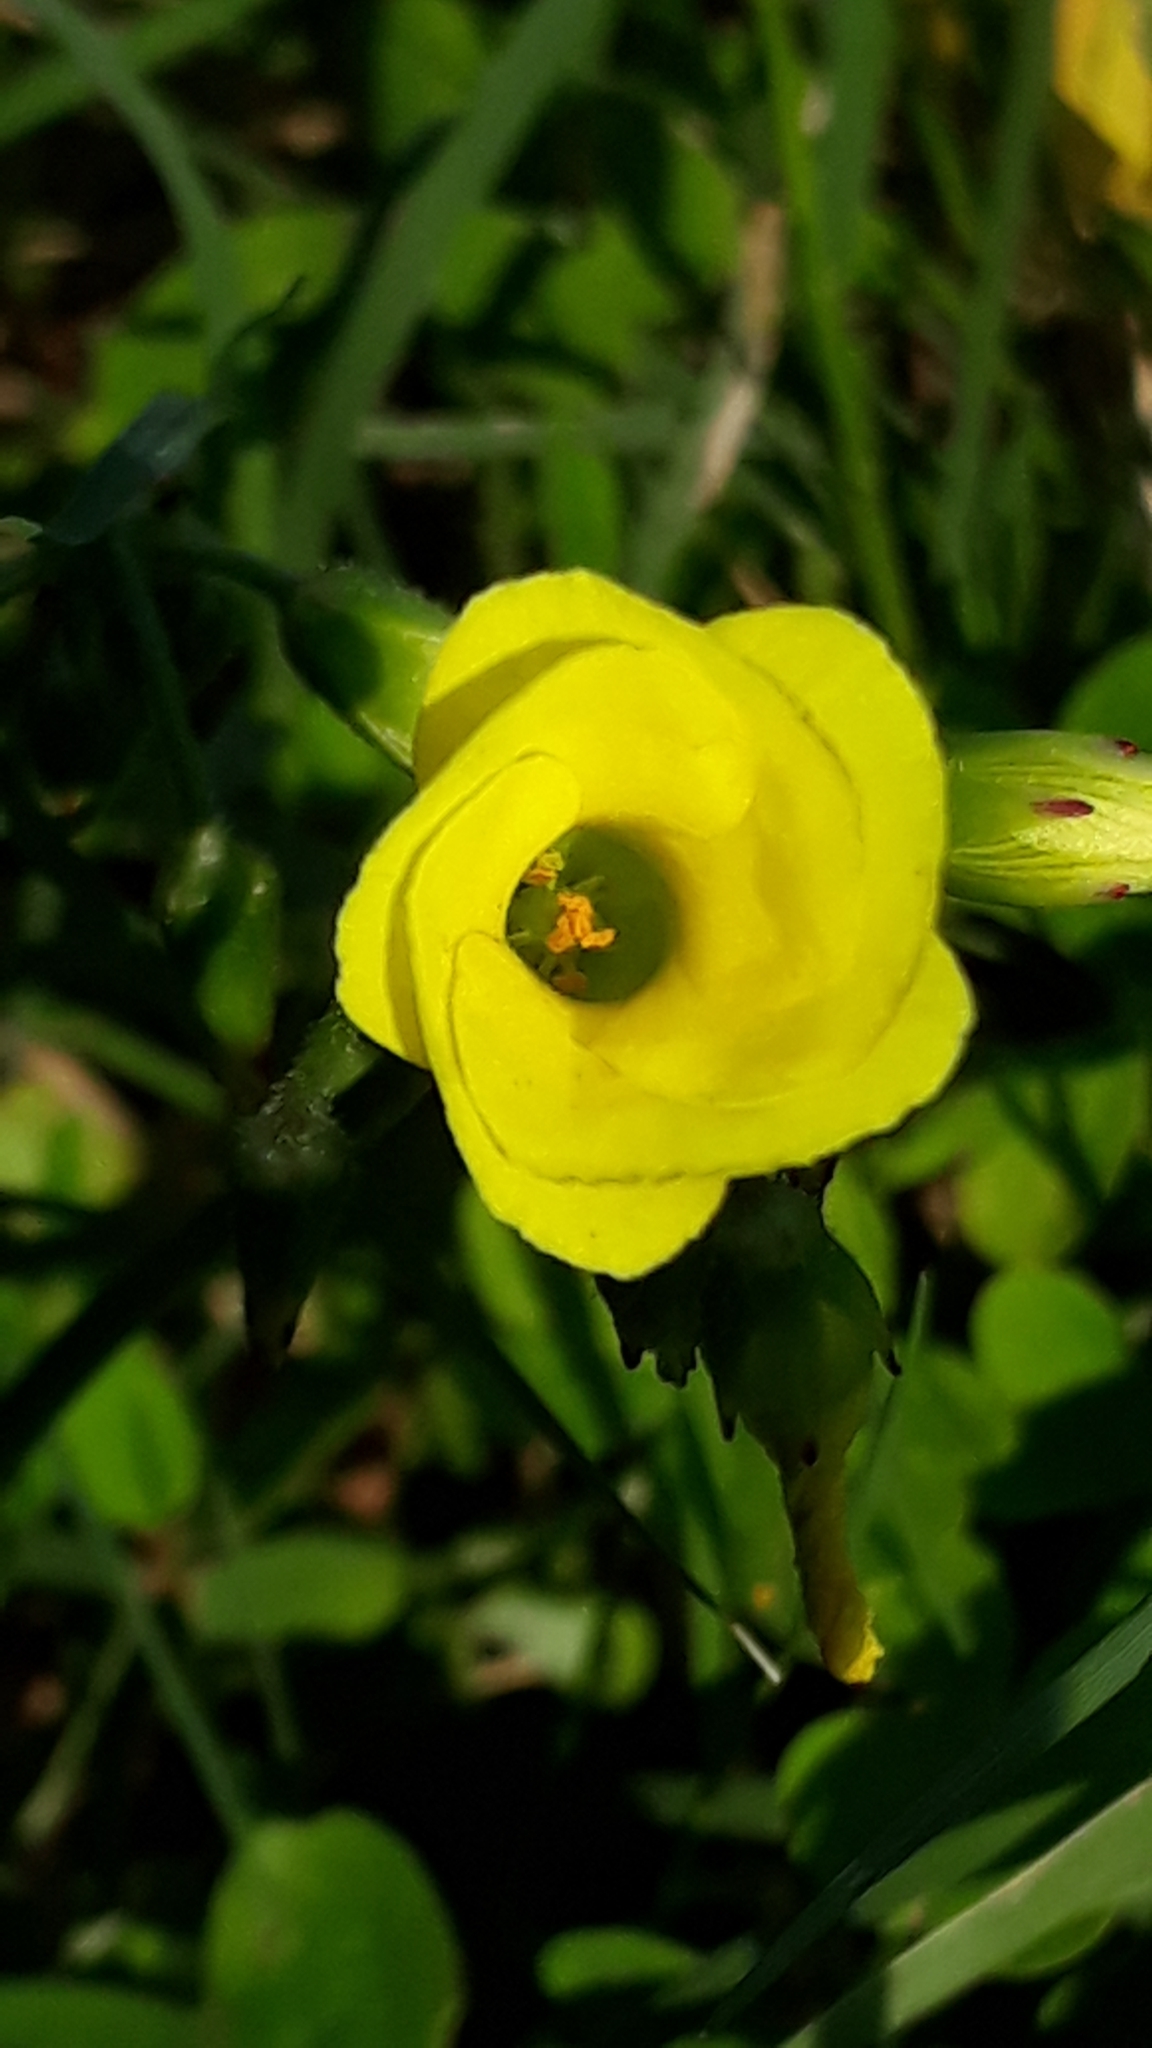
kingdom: Plantae
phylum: Tracheophyta
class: Magnoliopsida
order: Oxalidales
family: Oxalidaceae
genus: Oxalis
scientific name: Oxalis pes-caprae
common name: Bermuda-buttercup
